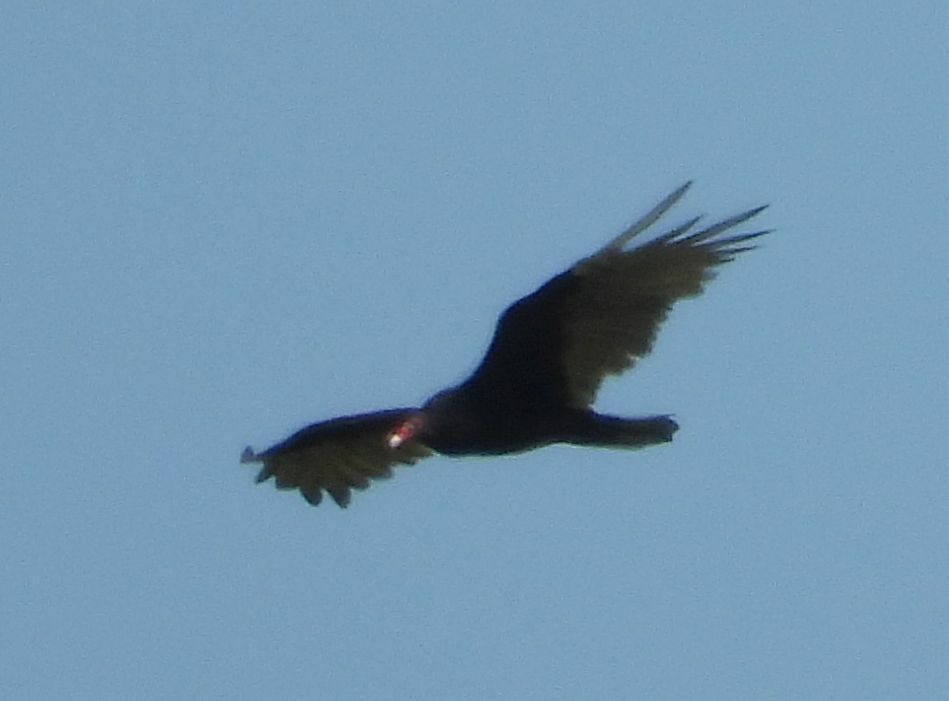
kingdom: Animalia
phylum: Chordata
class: Aves
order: Accipitriformes
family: Cathartidae
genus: Cathartes
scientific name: Cathartes aura
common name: Turkey vulture
